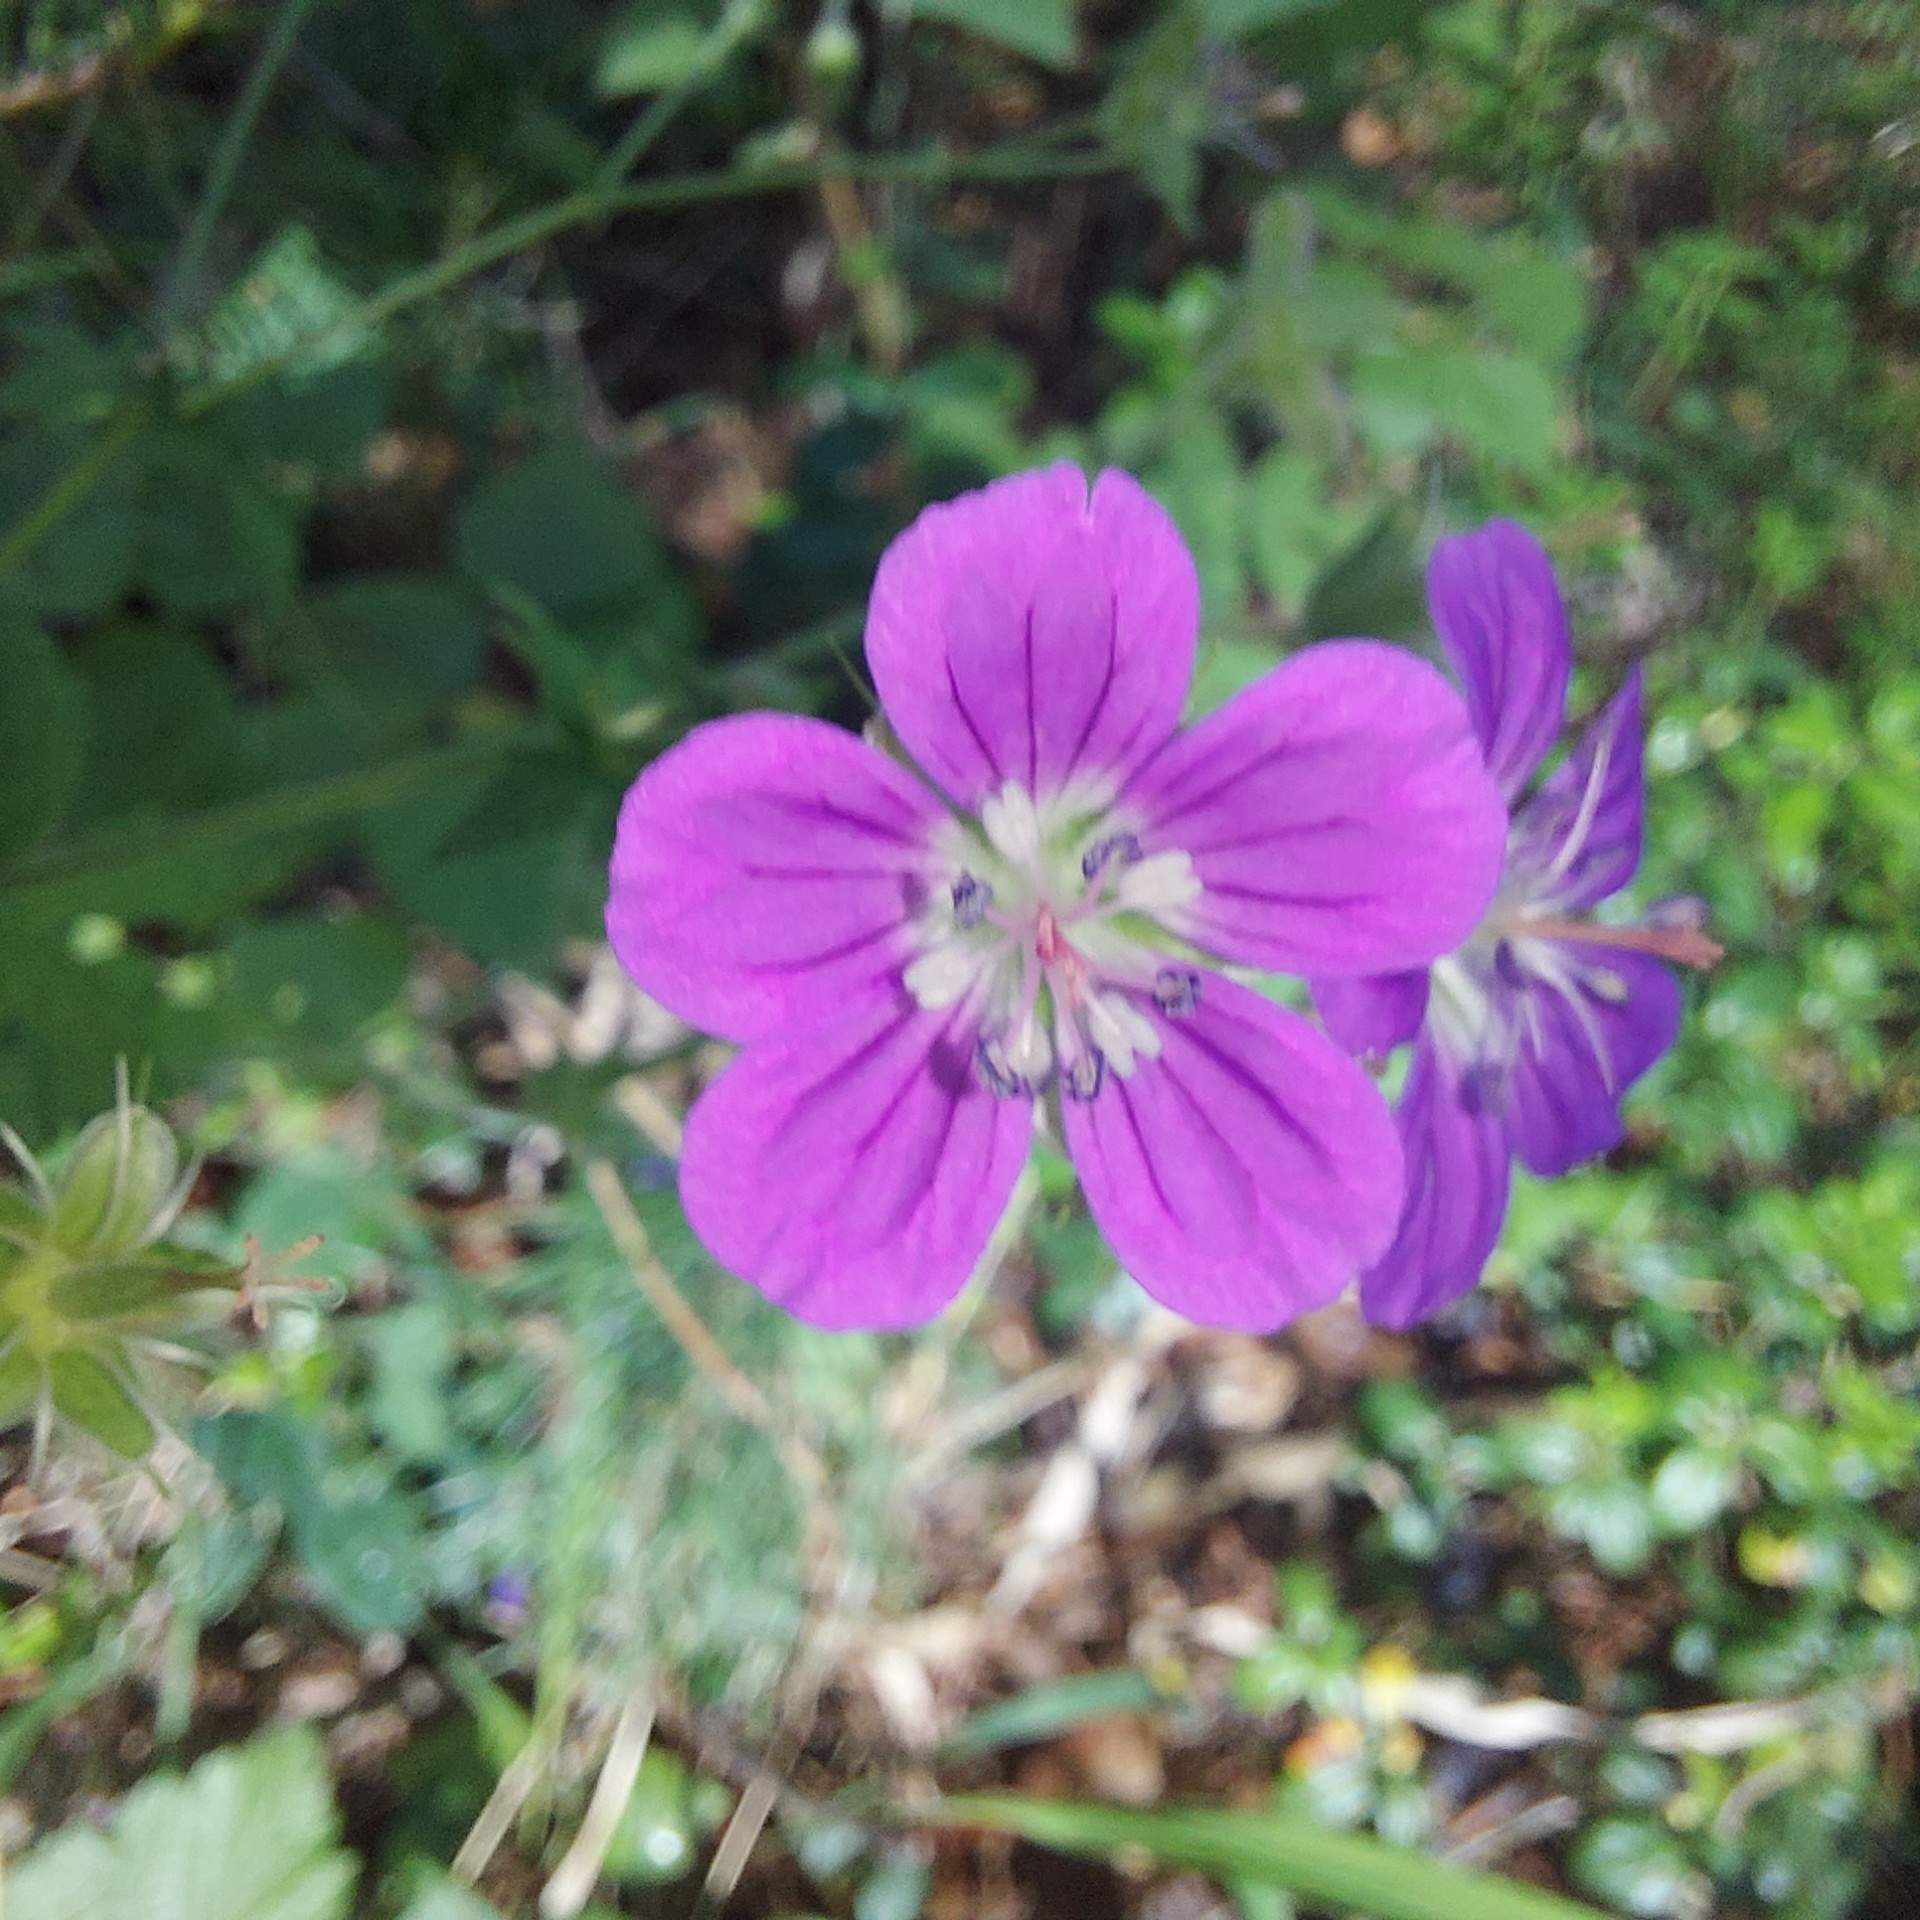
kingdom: Plantae
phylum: Tracheophyta
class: Magnoliopsida
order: Geraniales
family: Geraniaceae
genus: Geranium
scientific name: Geranium sylvaticum
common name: Wood crane's-bill
